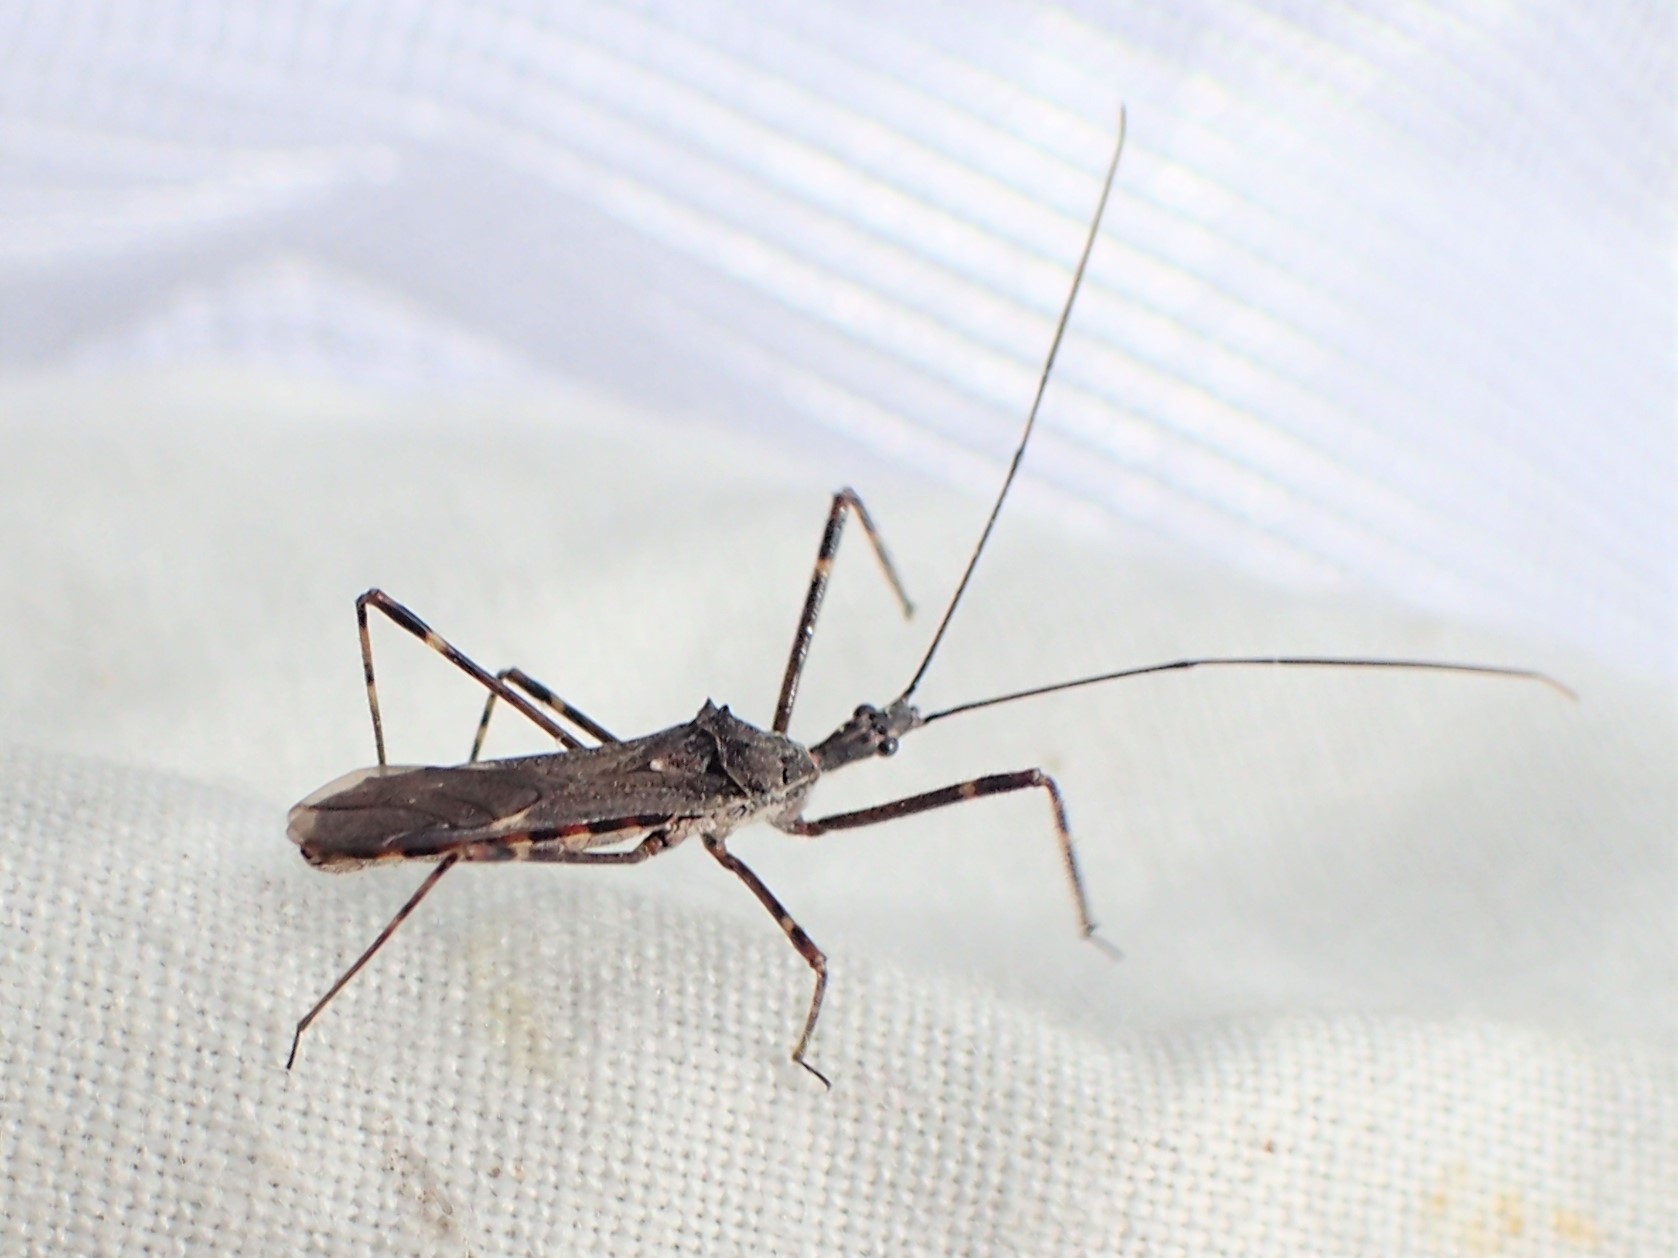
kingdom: Animalia
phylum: Arthropoda
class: Insecta
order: Hemiptera
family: Reduviidae
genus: Zelus
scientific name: Zelus tetracanthus
